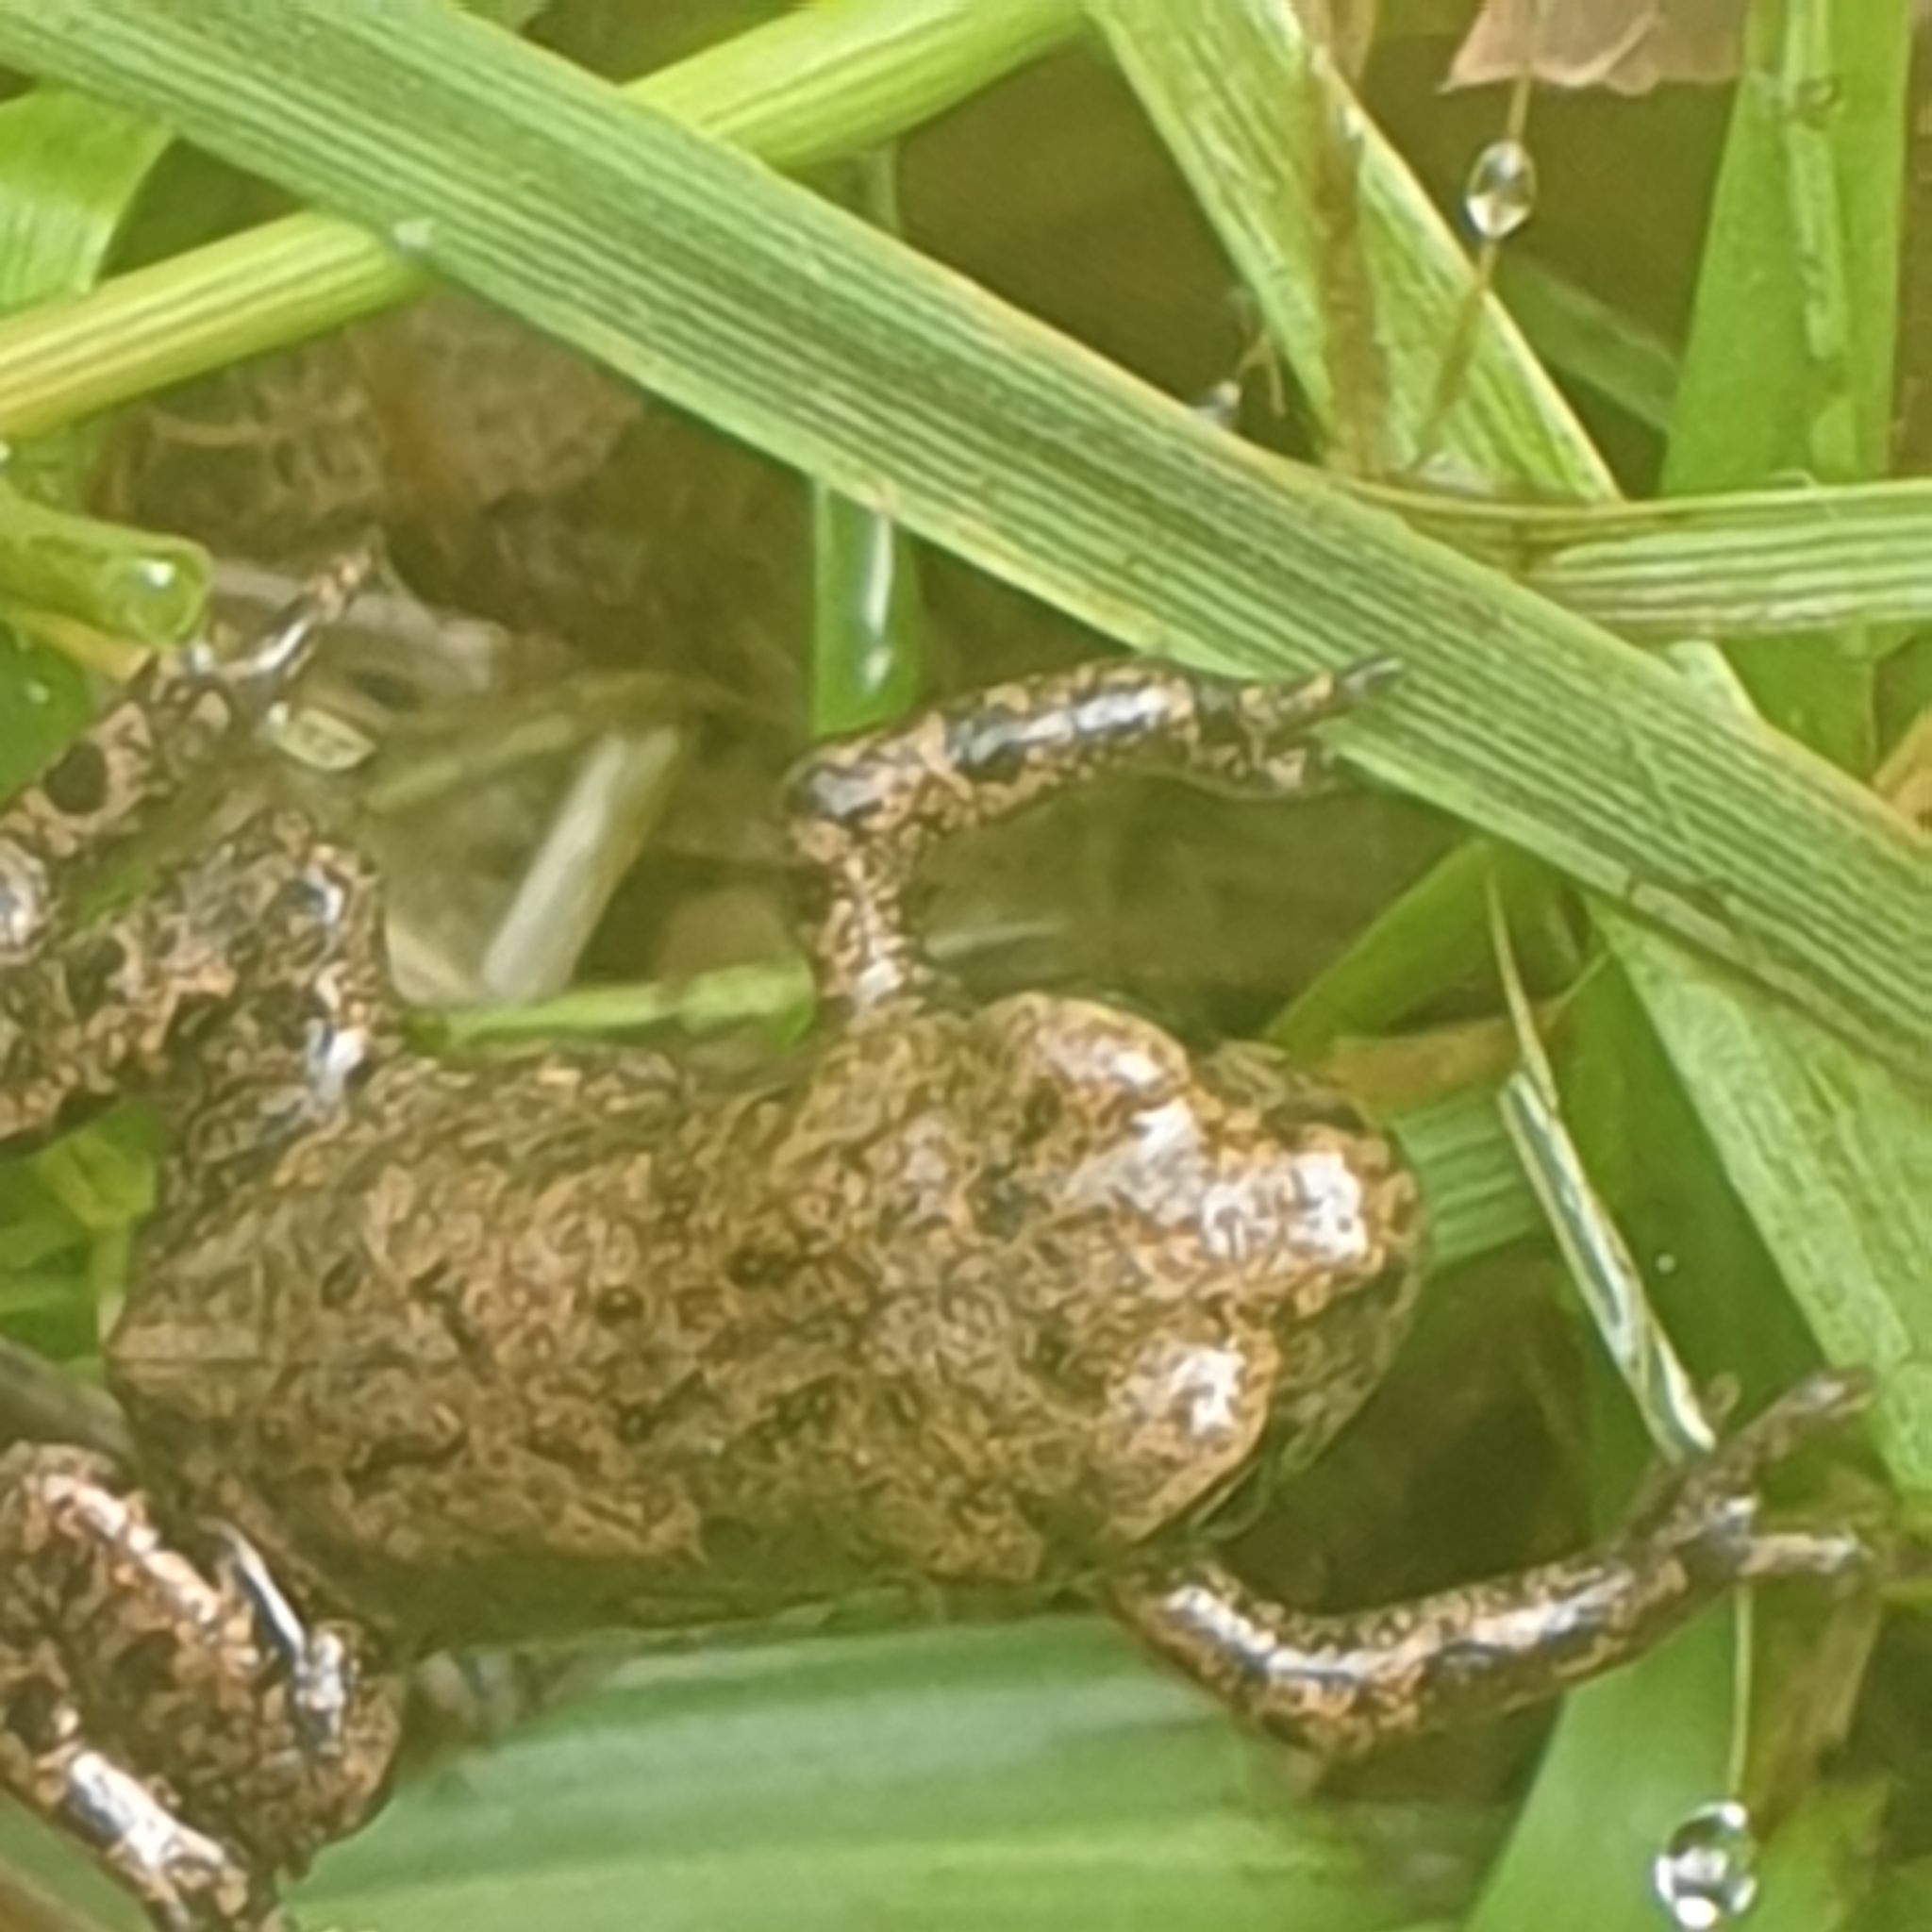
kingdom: Animalia
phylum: Chordata
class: Amphibia
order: Anura
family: Bufonidae
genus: Bufo
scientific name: Bufo bufo
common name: Common toad
